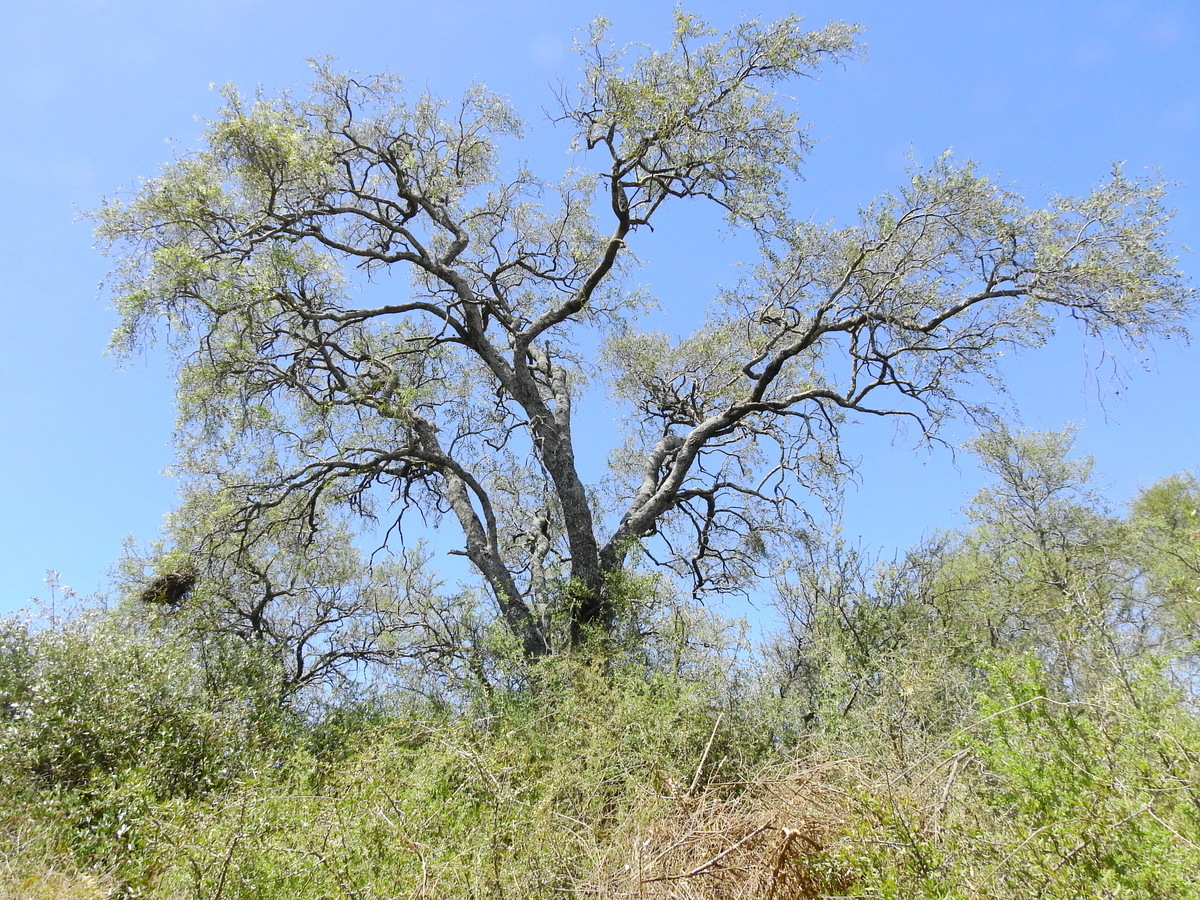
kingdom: Plantae
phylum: Tracheophyta
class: Magnoliopsida
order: Gentianales
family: Apocynaceae
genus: Aspidosperma
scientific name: Aspidosperma quebracho-blanco
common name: White quebracho
